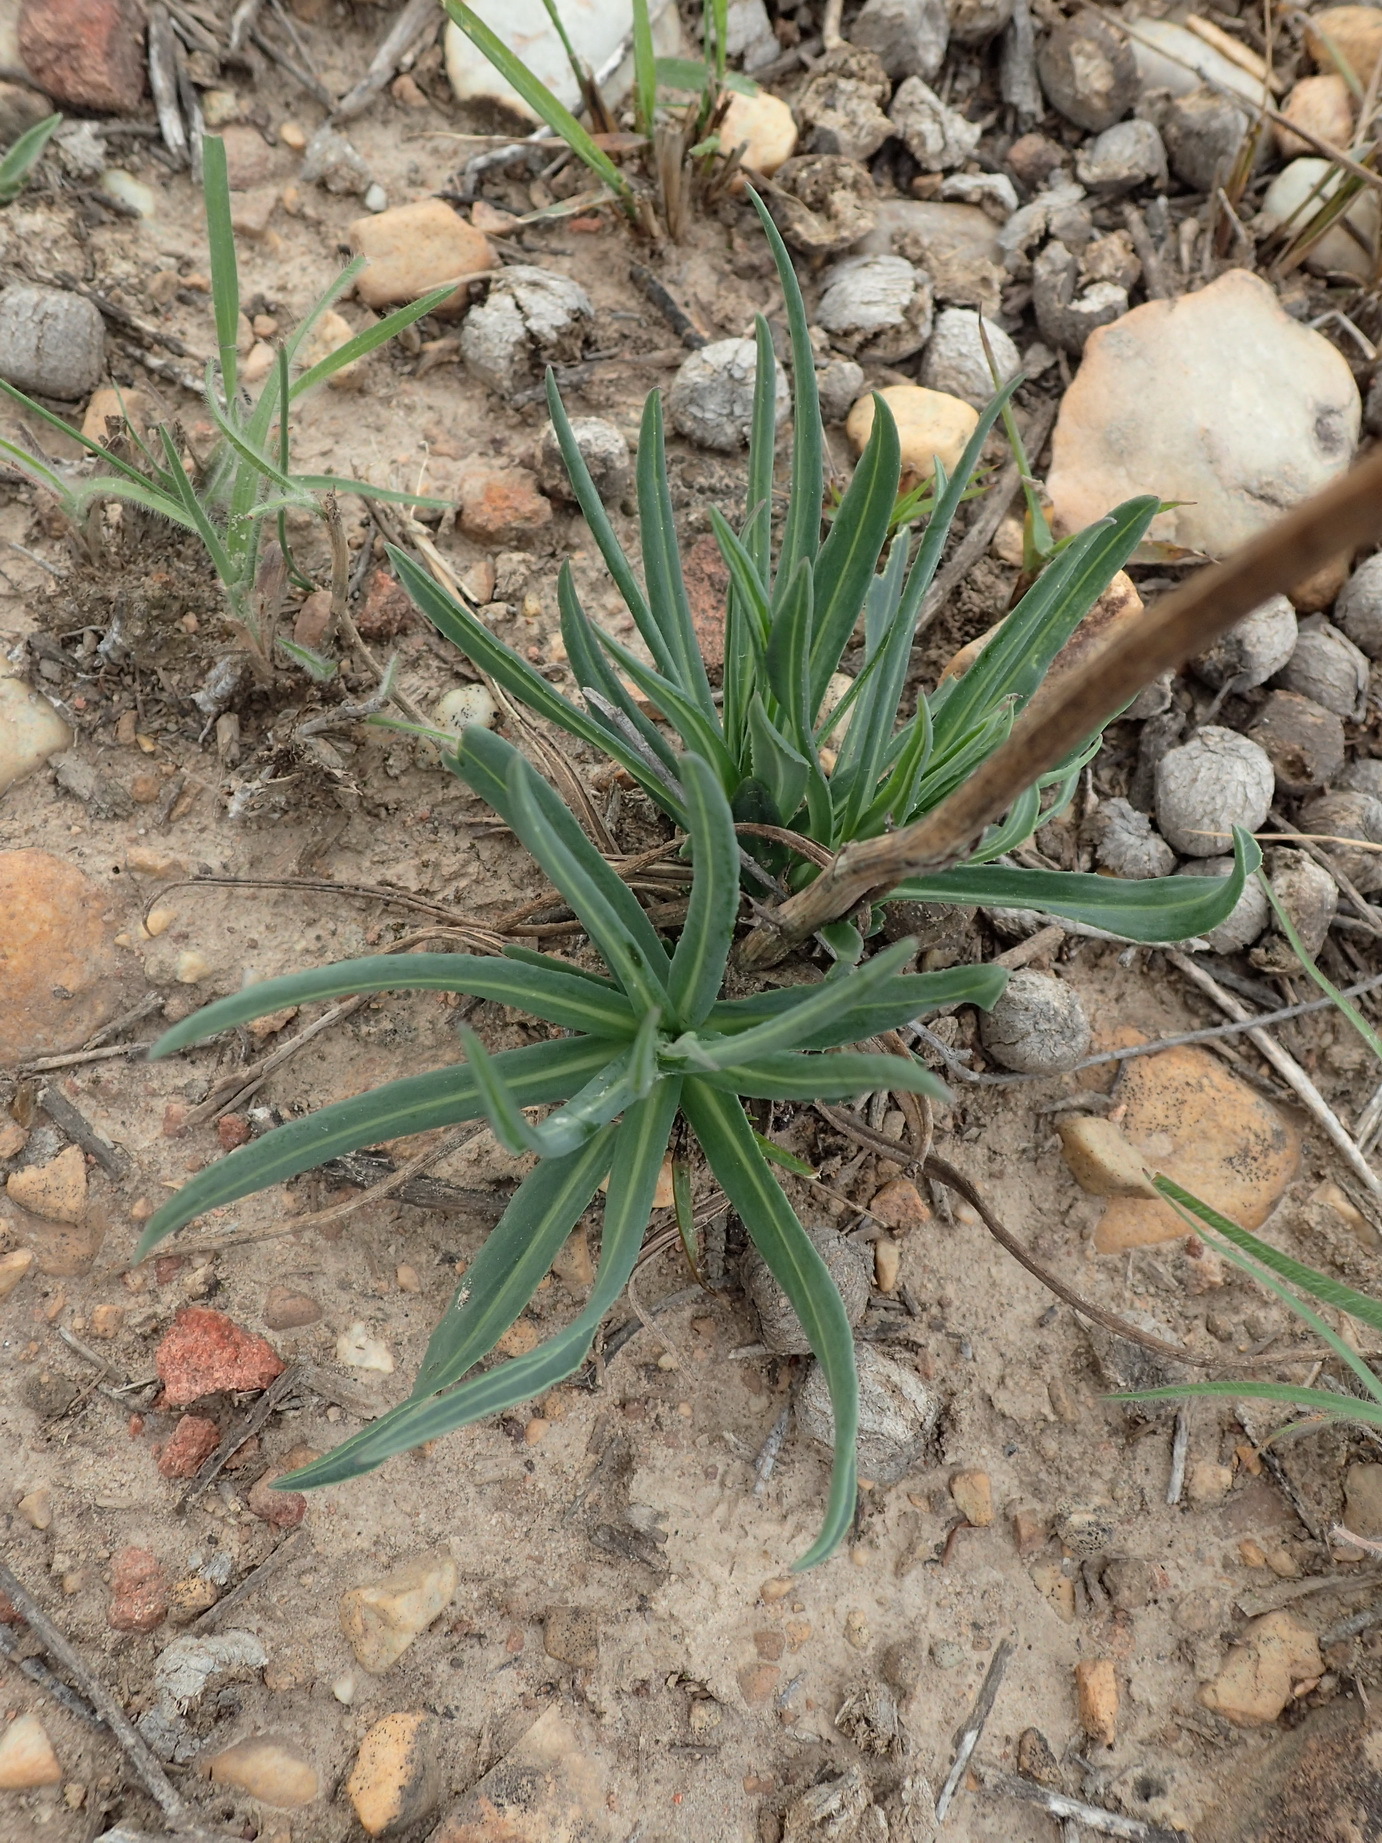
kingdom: Plantae
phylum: Tracheophyta
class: Magnoliopsida
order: Asterales
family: Asteraceae
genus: Senecio
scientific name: Senecio othonniflorus
